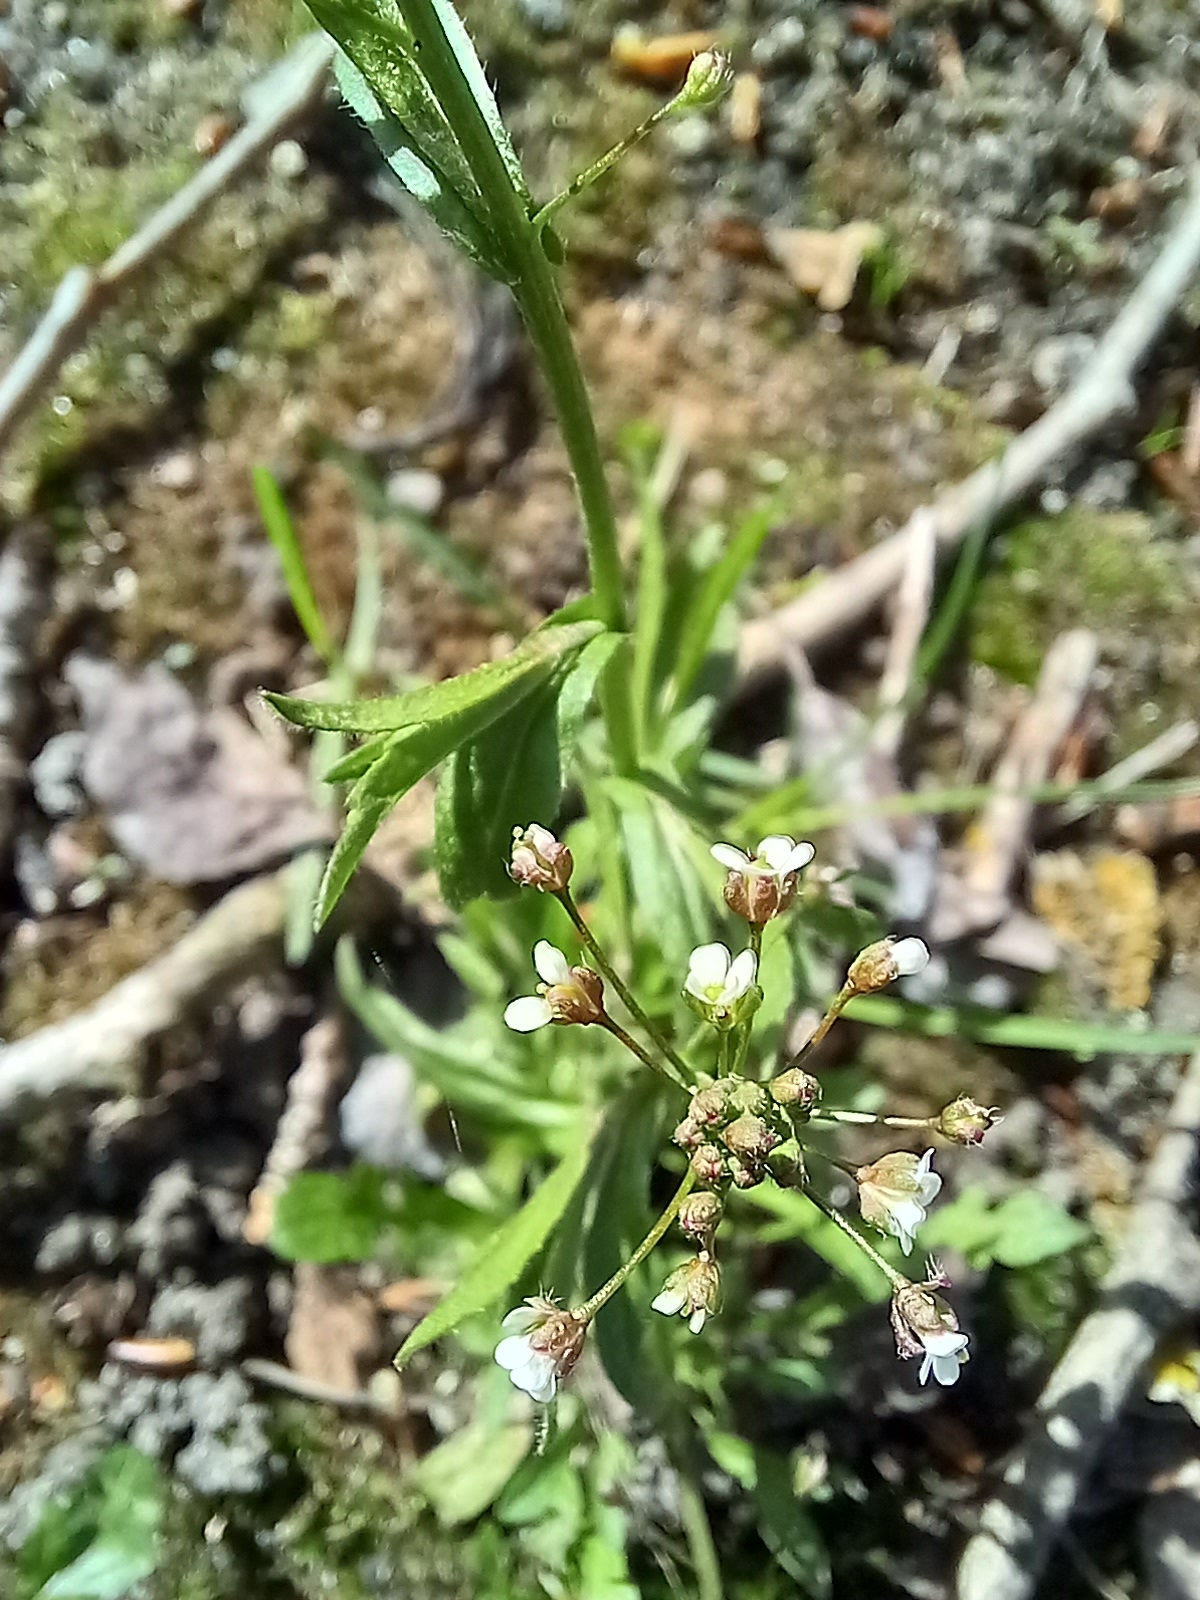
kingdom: Plantae
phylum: Tracheophyta
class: Magnoliopsida
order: Brassicales
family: Brassicaceae
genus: Capsella
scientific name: Capsella bursa-pastoris
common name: Shepherd's purse
